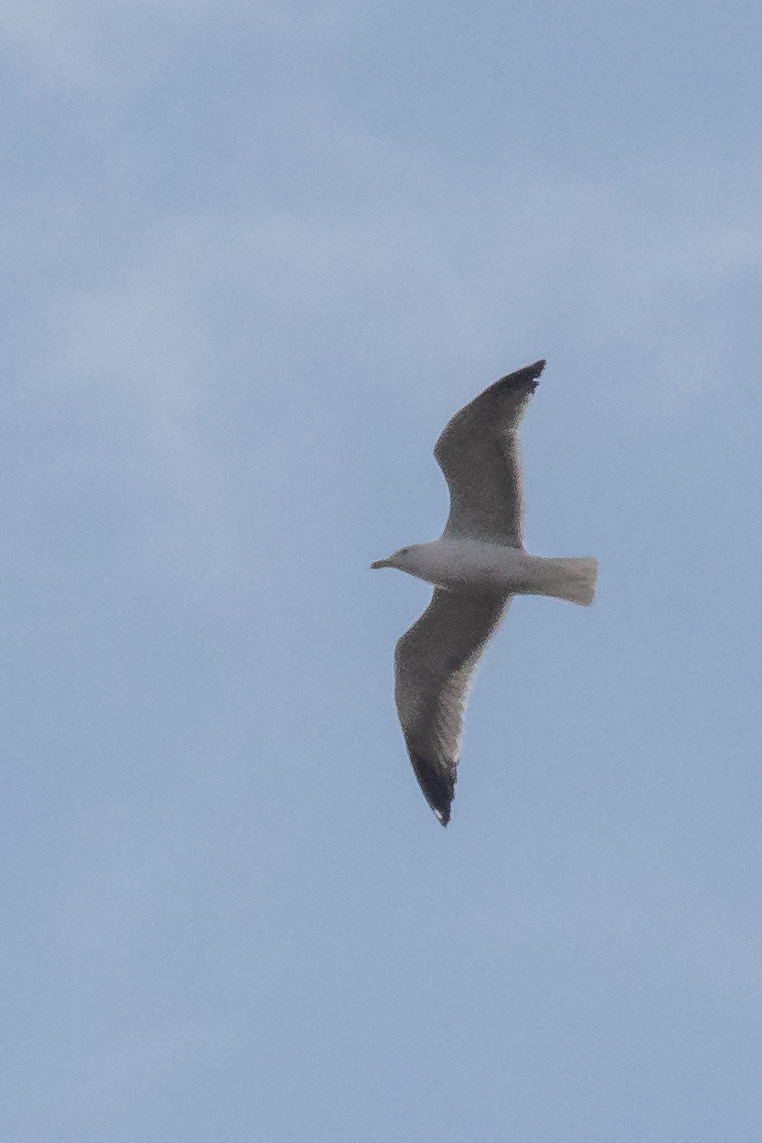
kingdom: Animalia
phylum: Chordata
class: Aves
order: Charadriiformes
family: Laridae
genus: Larus
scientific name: Larus michahellis
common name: Yellow-legged gull
